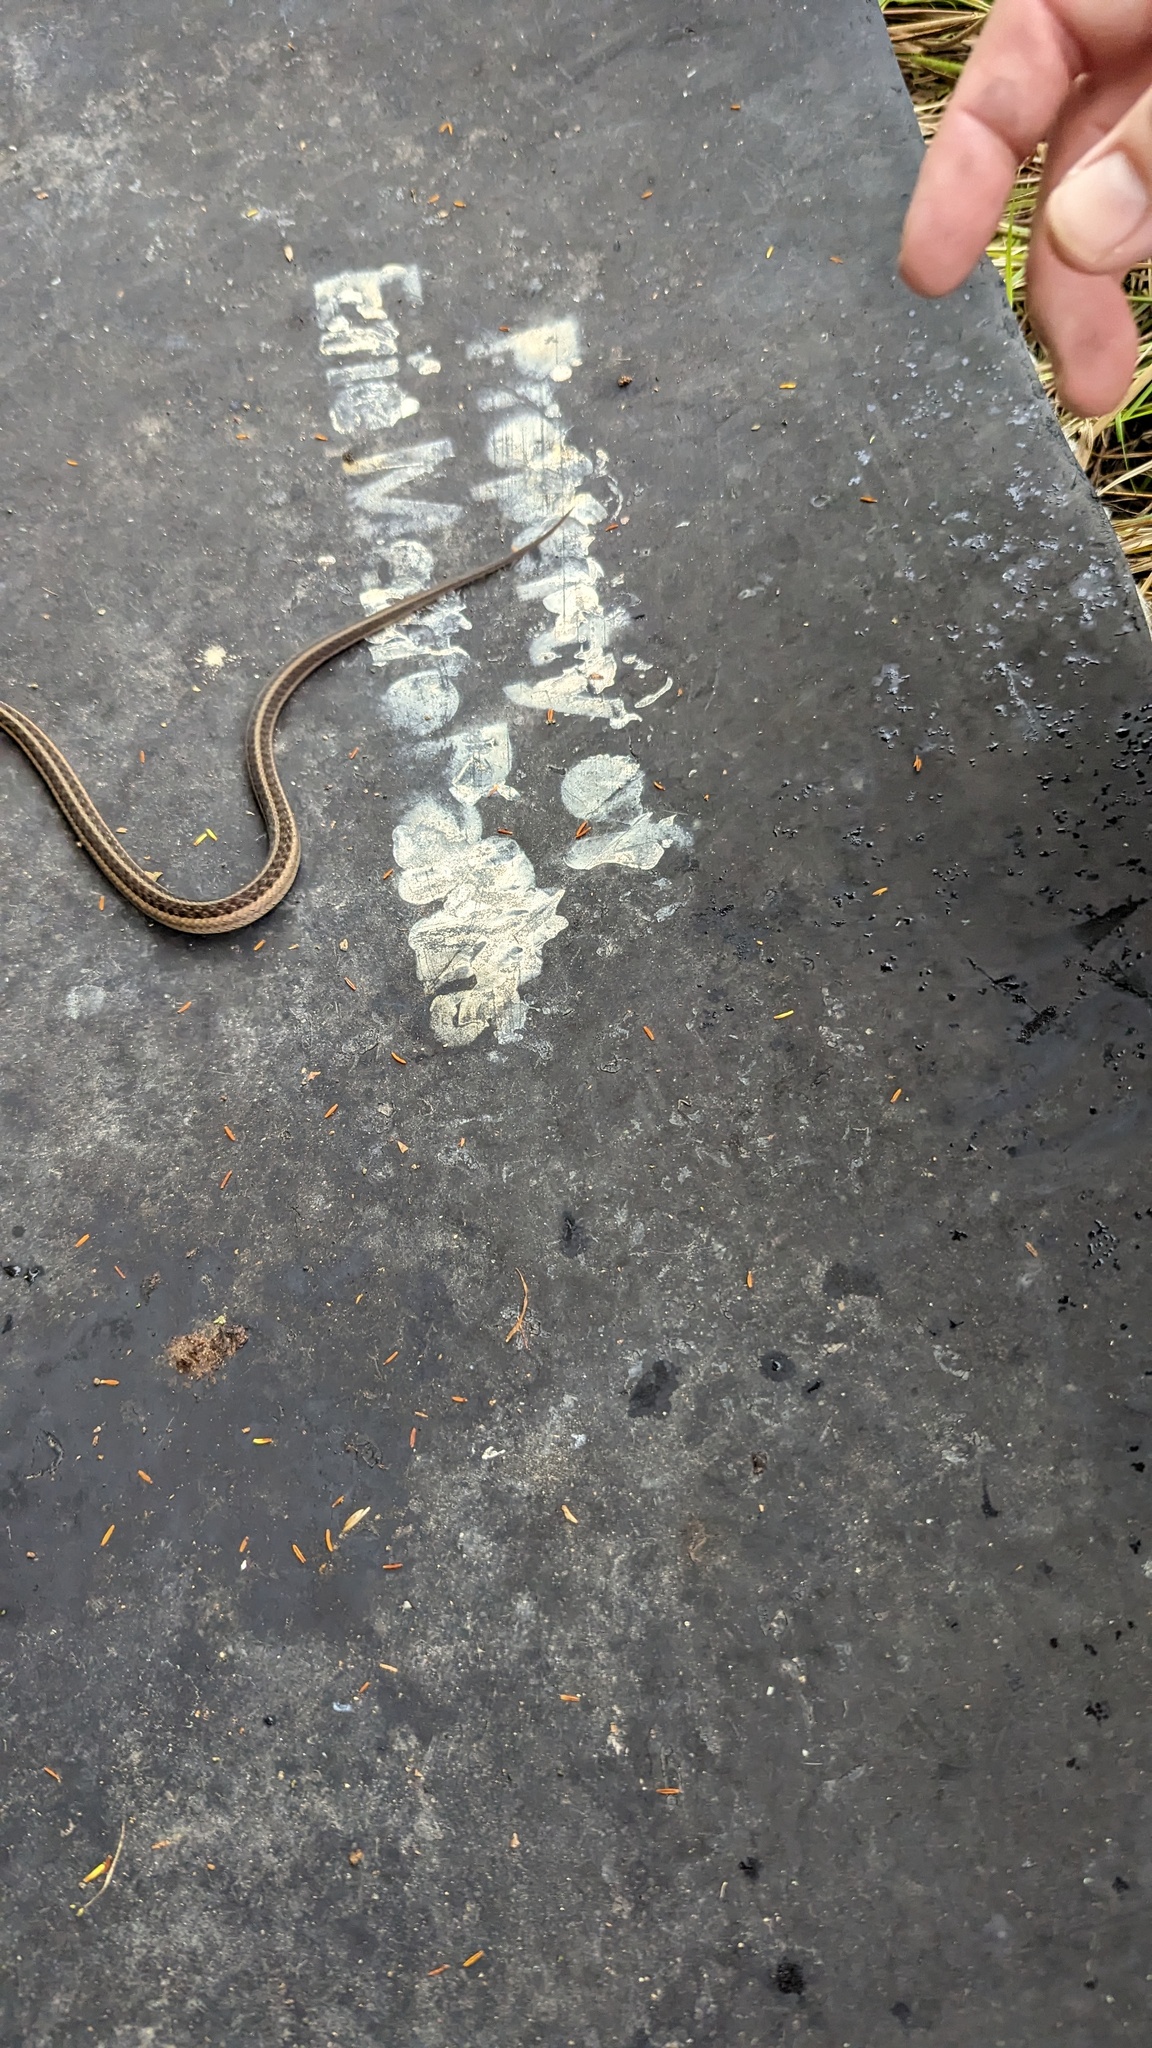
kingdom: Animalia
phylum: Chordata
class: Squamata
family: Colubridae
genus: Thamnophis
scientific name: Thamnophis sirtalis
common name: Common garter snake
